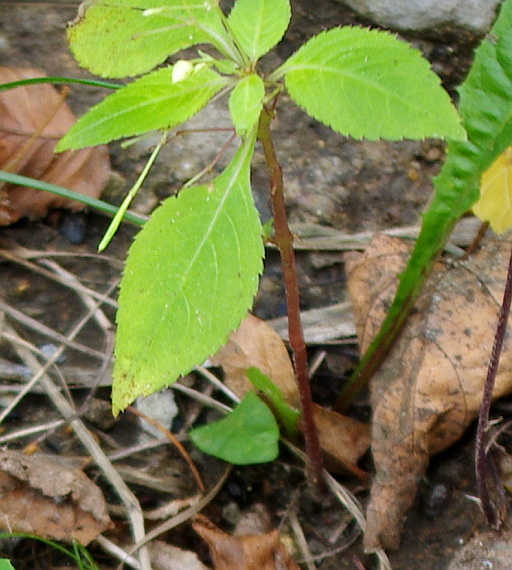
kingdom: Plantae
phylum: Tracheophyta
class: Magnoliopsida
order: Ericales
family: Balsaminaceae
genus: Impatiens
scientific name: Impatiens parviflora
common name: Small balsam
